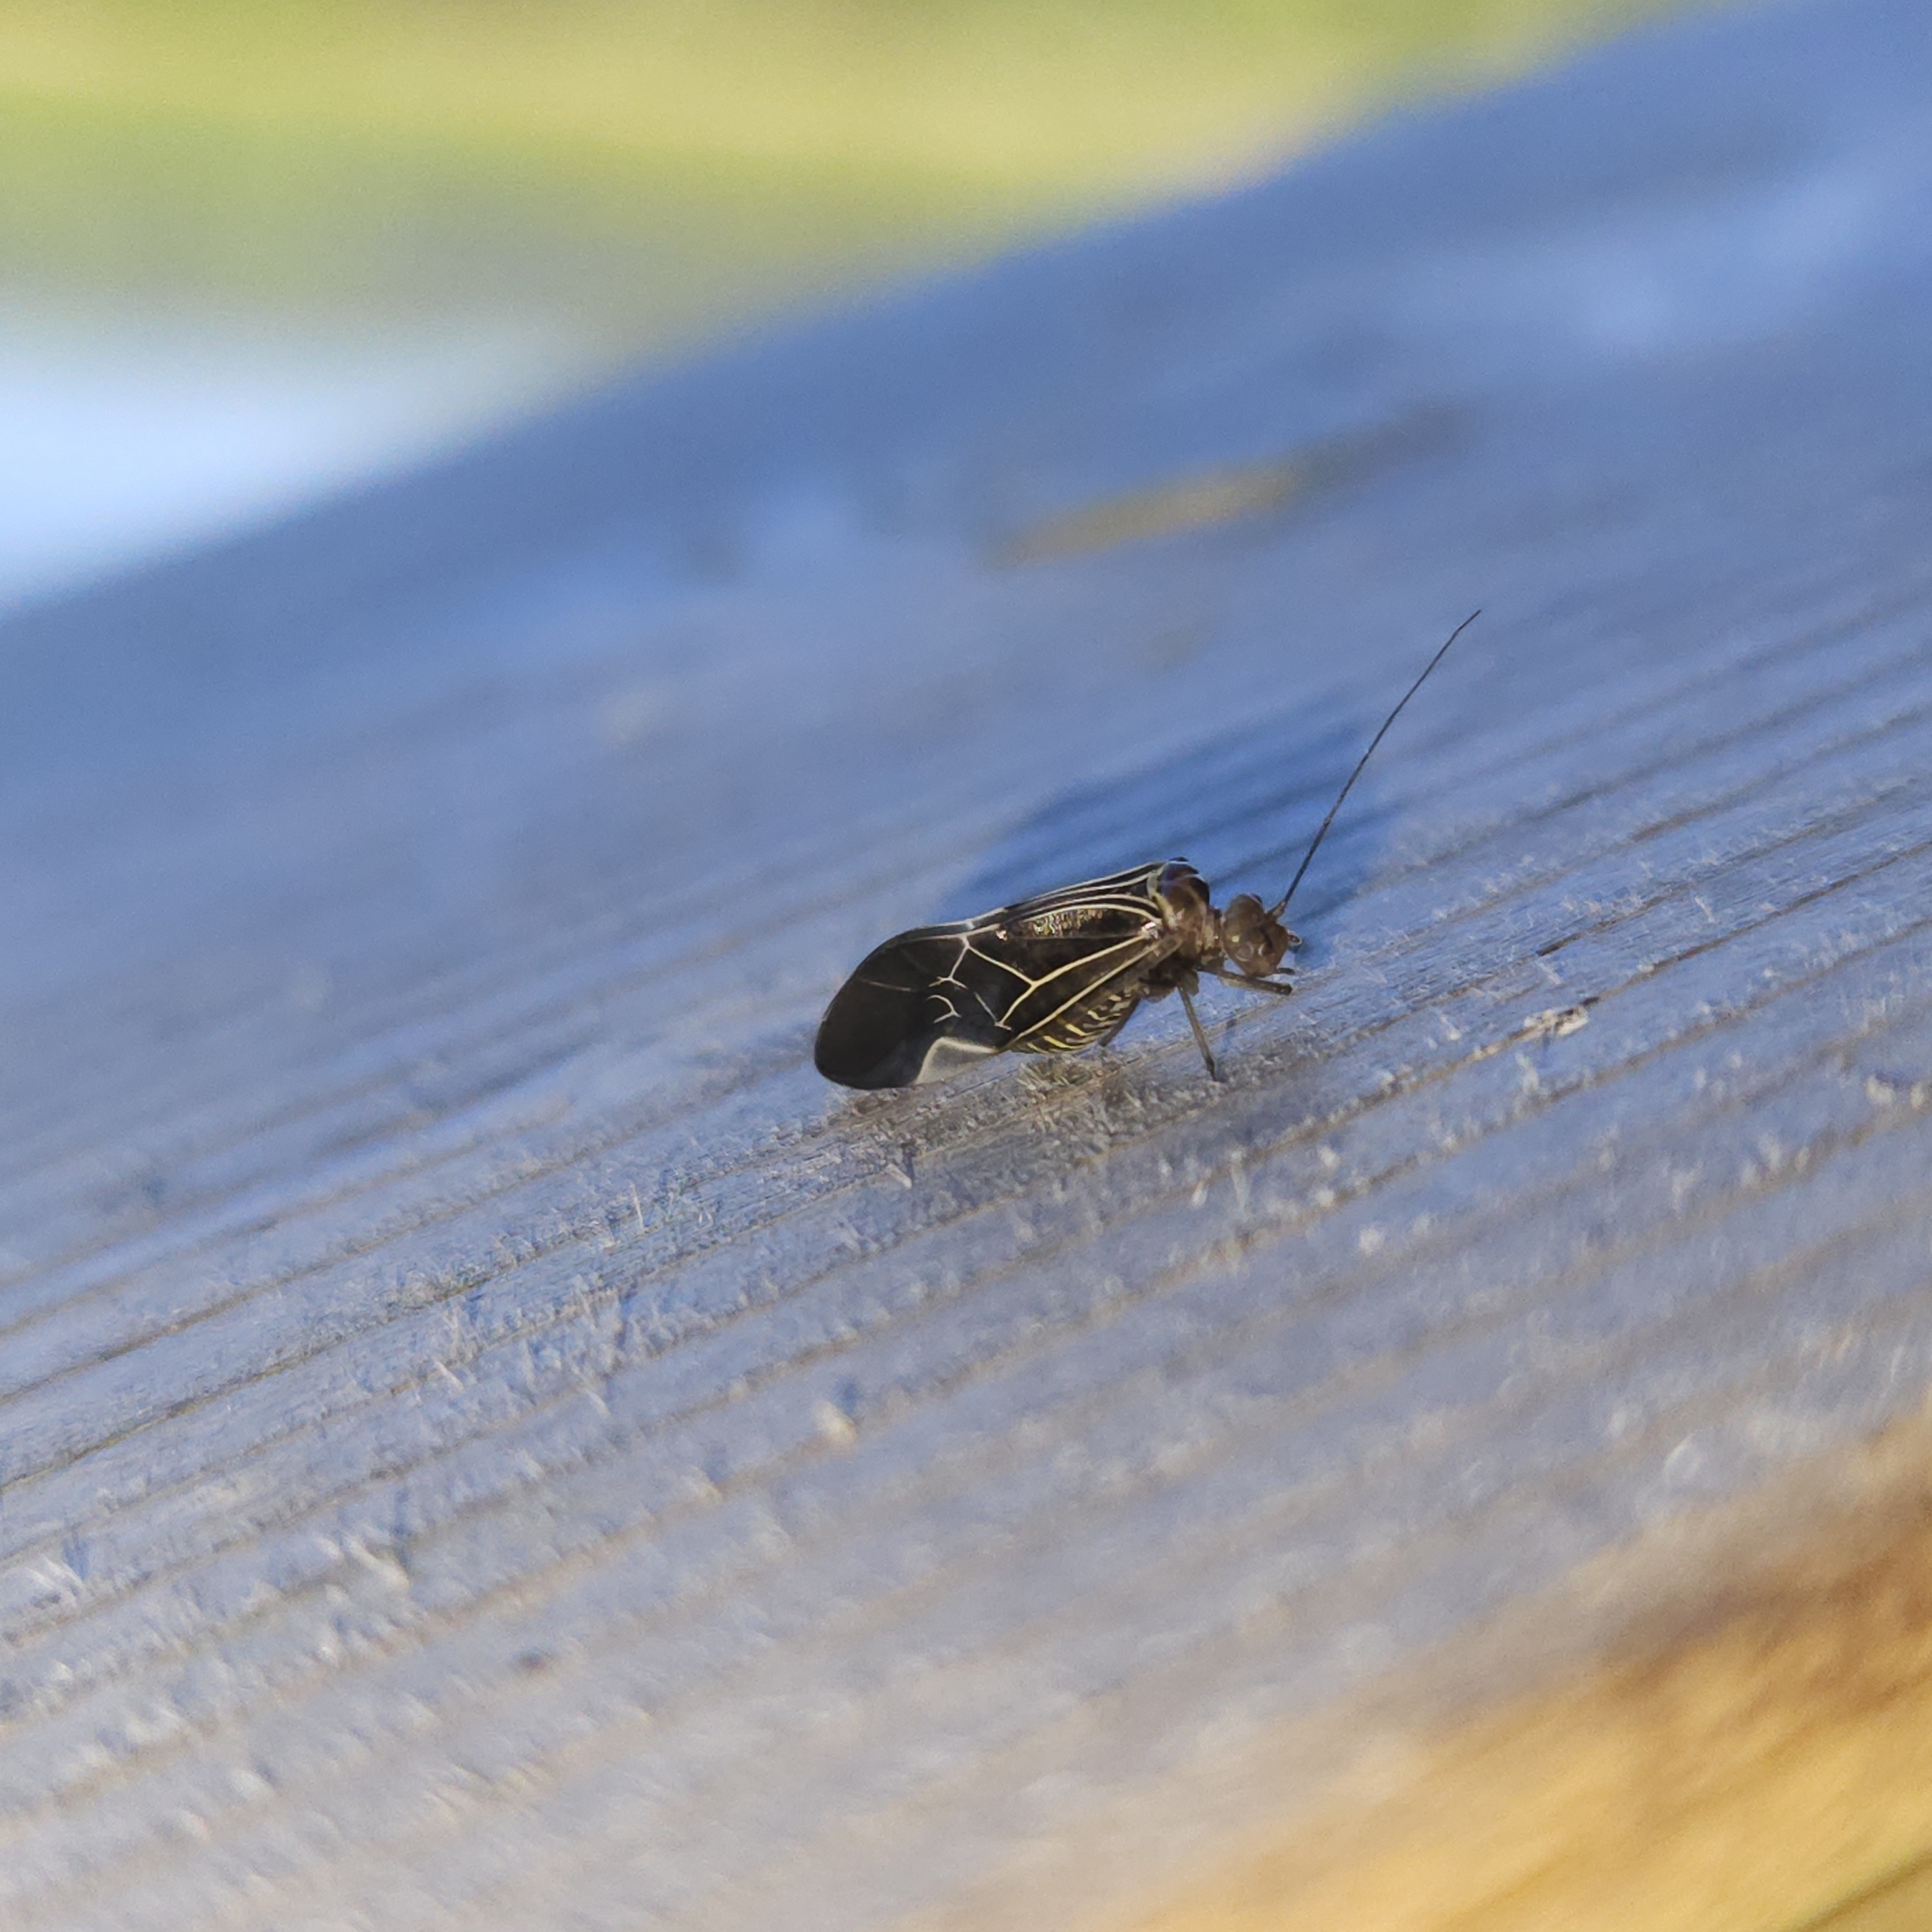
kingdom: Animalia
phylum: Arthropoda
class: Insecta
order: Psocodea
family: Psocidae
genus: Cerastipsocus
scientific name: Cerastipsocus venosus
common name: Tree cattle
